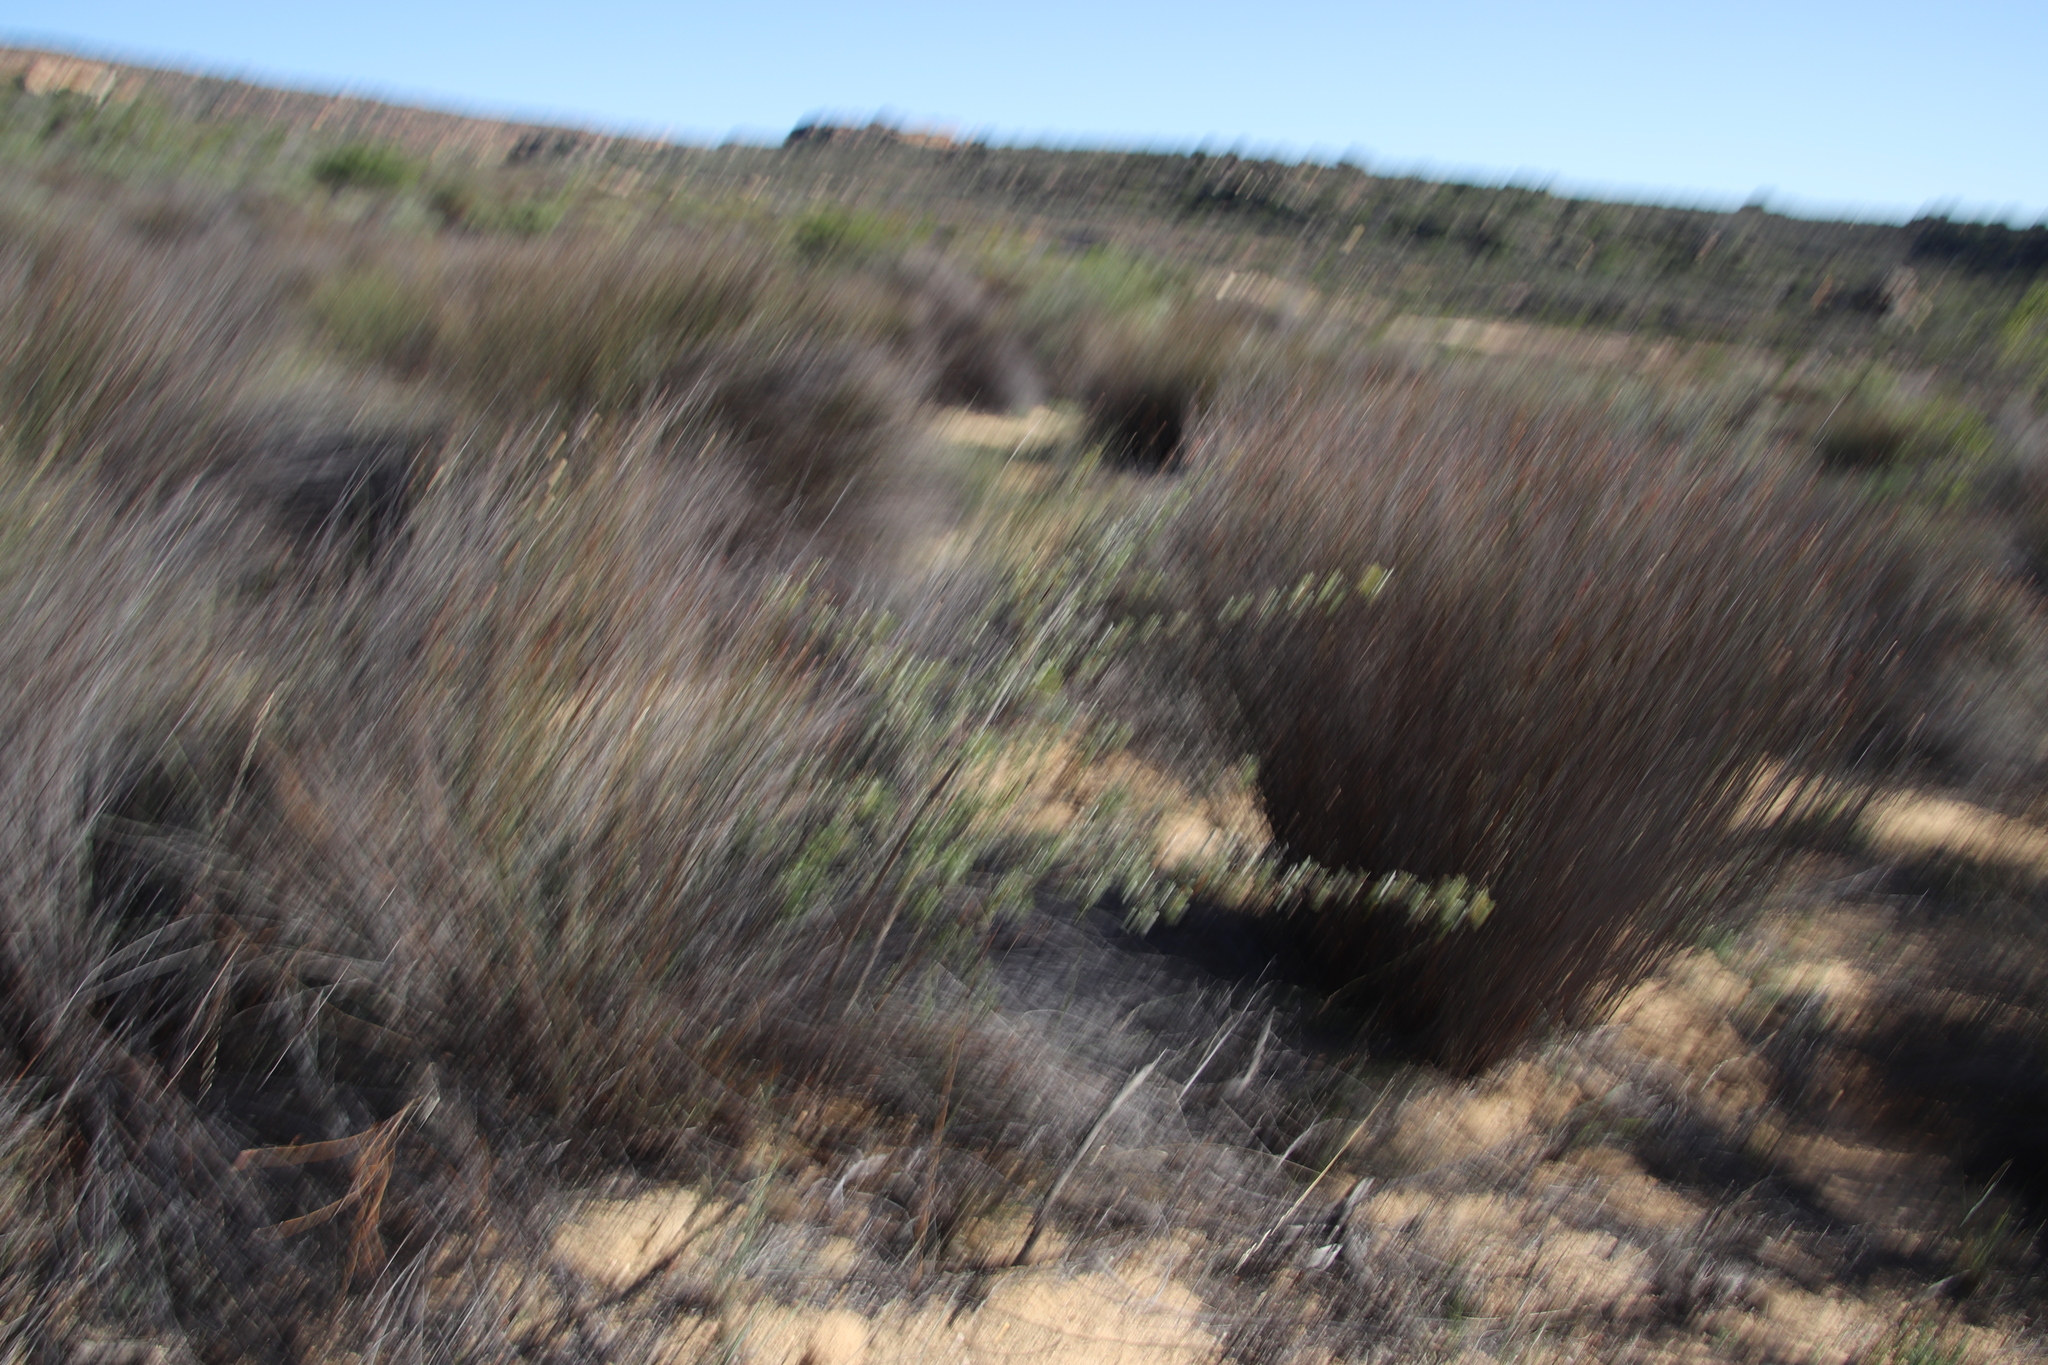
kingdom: Plantae
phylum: Tracheophyta
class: Magnoliopsida
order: Sapindales
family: Anacardiaceae
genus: Searsia
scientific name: Searsia dissecta
